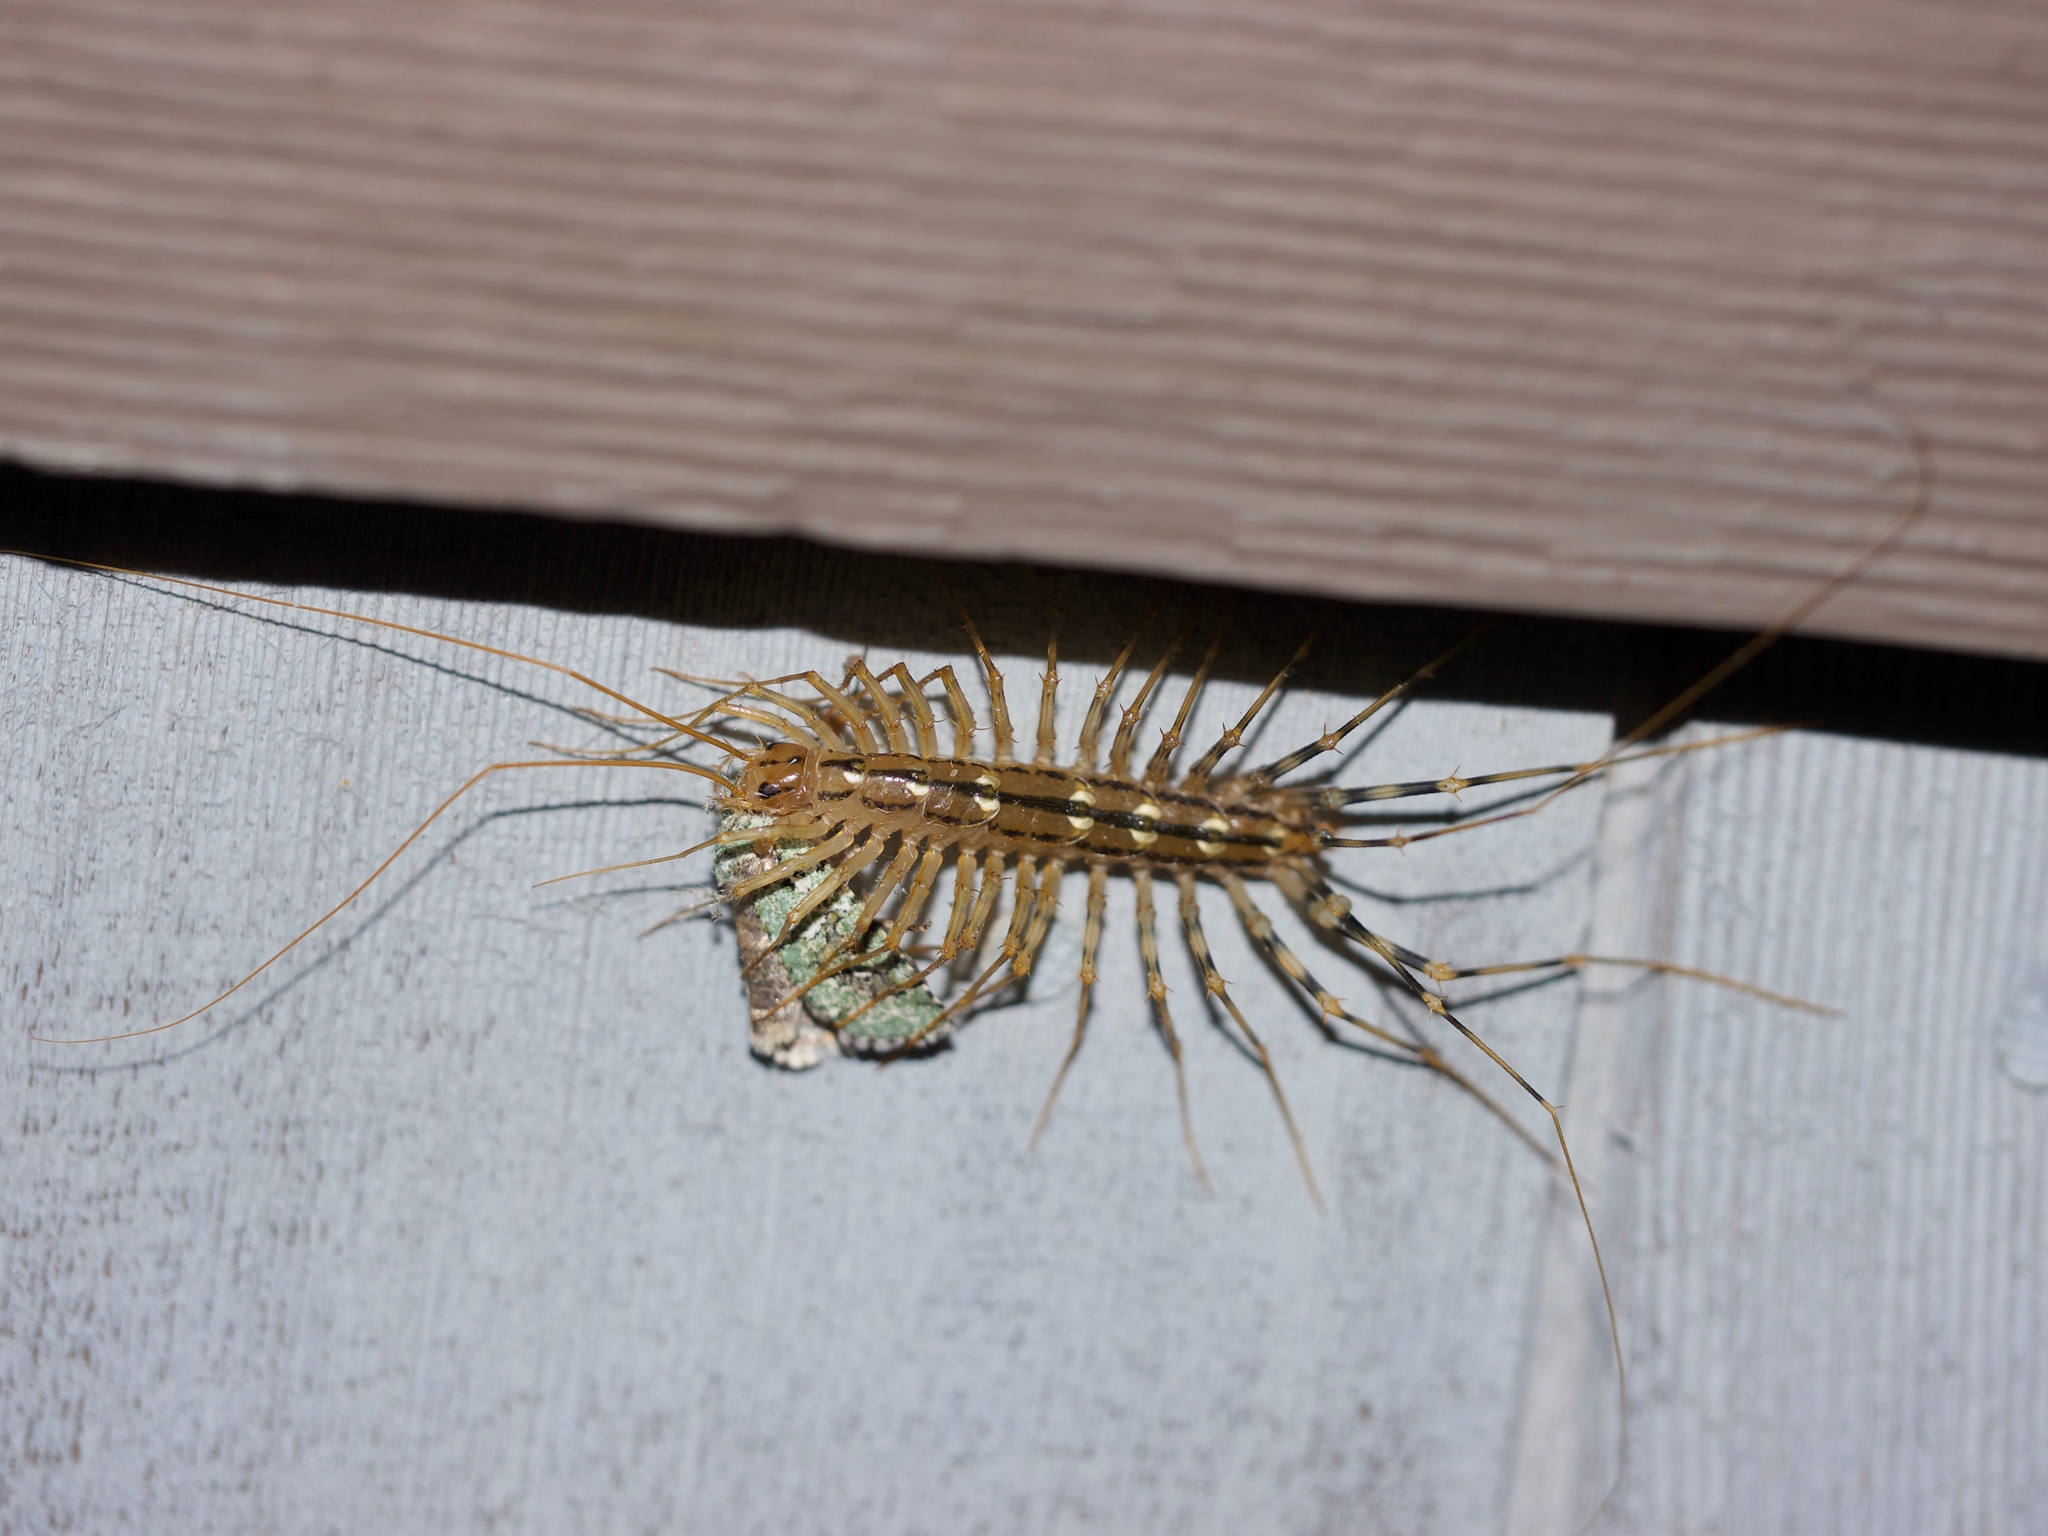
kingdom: Animalia
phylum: Arthropoda
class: Chilopoda
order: Scutigeromorpha
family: Scutigeridae
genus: Scutigera
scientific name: Scutigera coleoptrata
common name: House centipede
